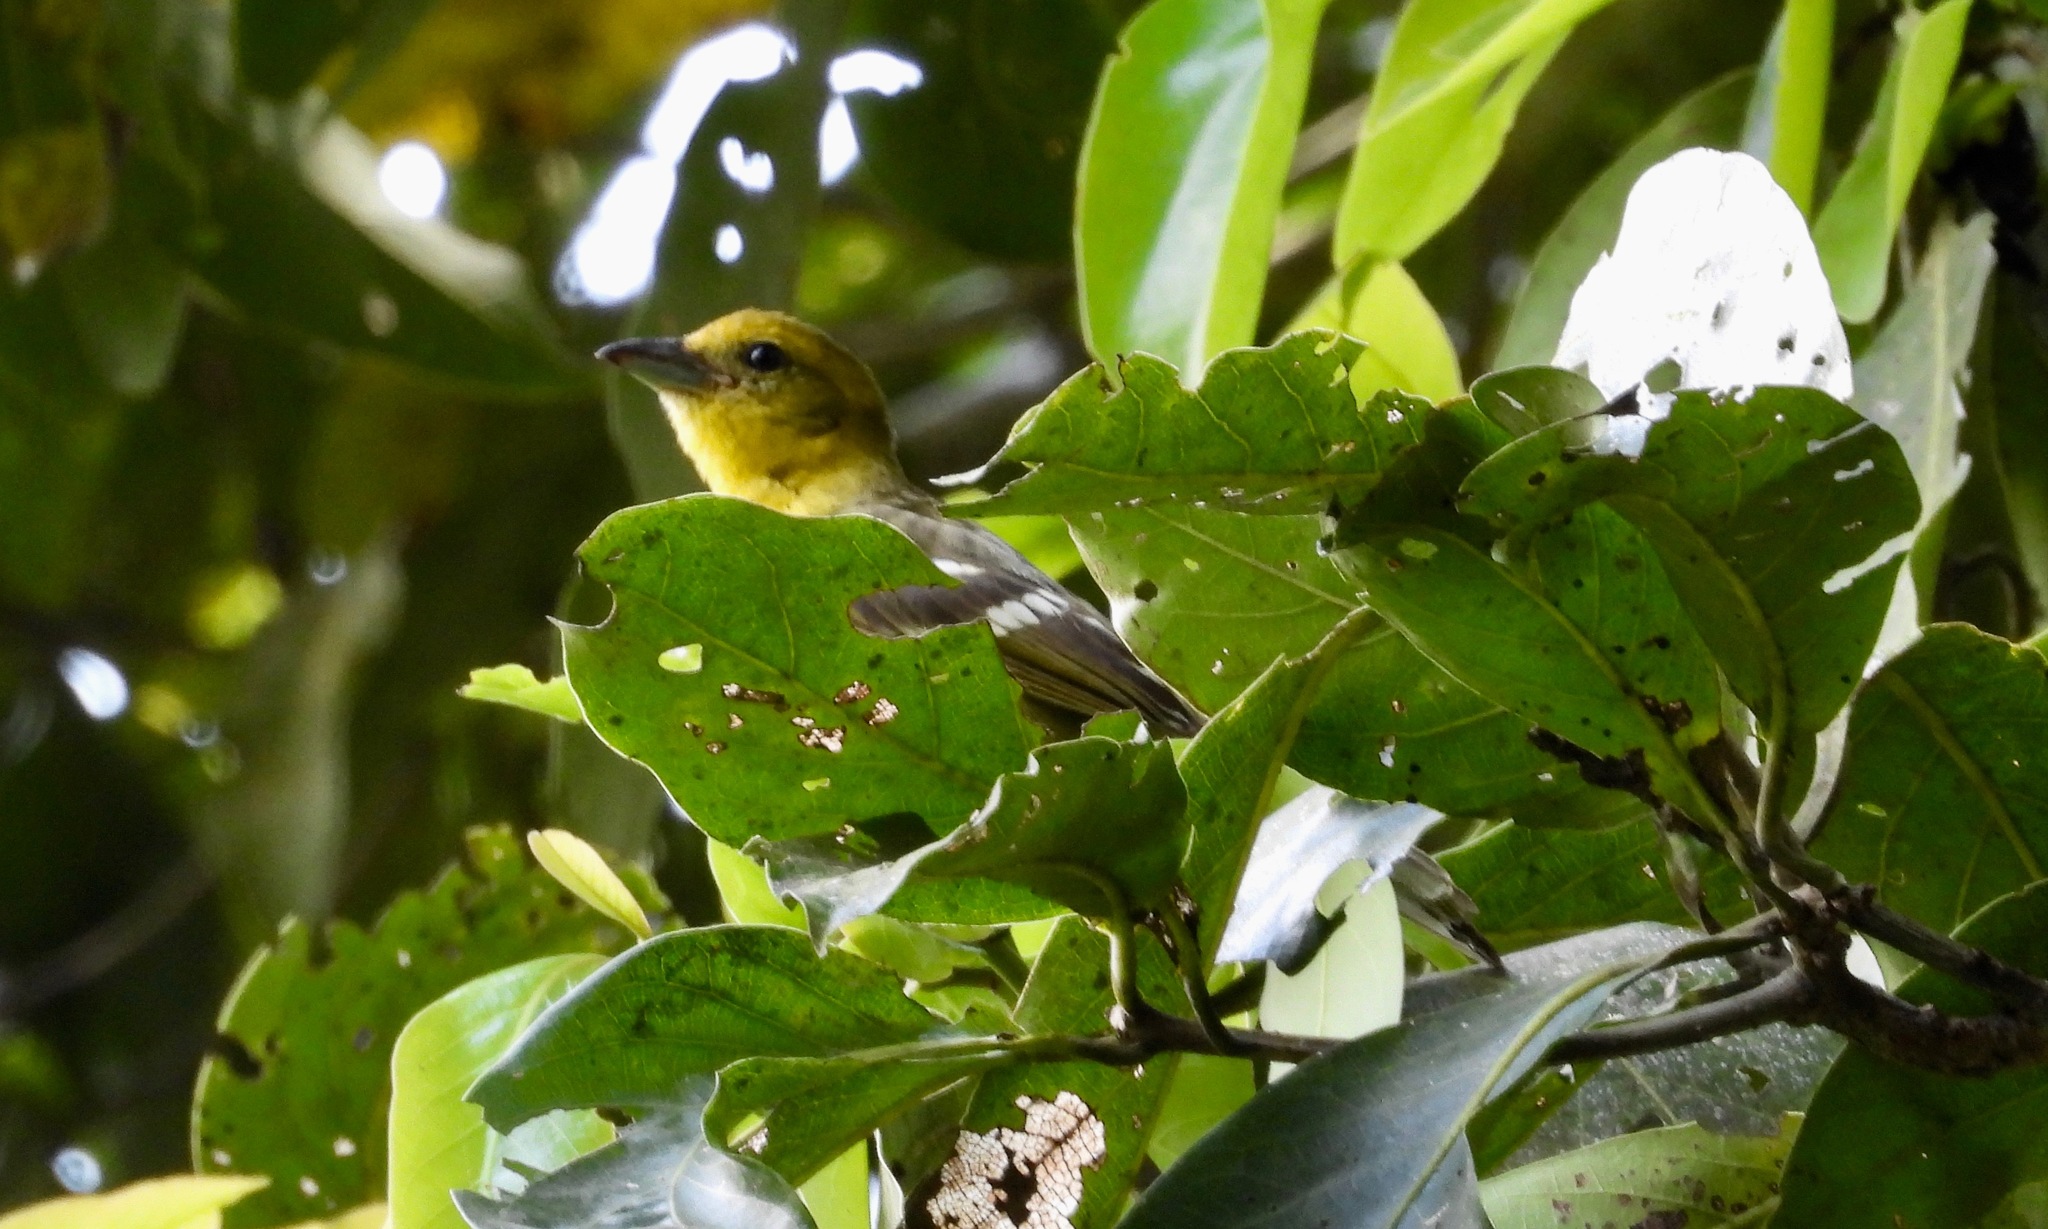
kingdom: Animalia
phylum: Chordata
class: Aves
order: Passeriformes
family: Cardinalidae
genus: Piranga
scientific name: Piranga bidentata
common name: Flame-colored tanager
